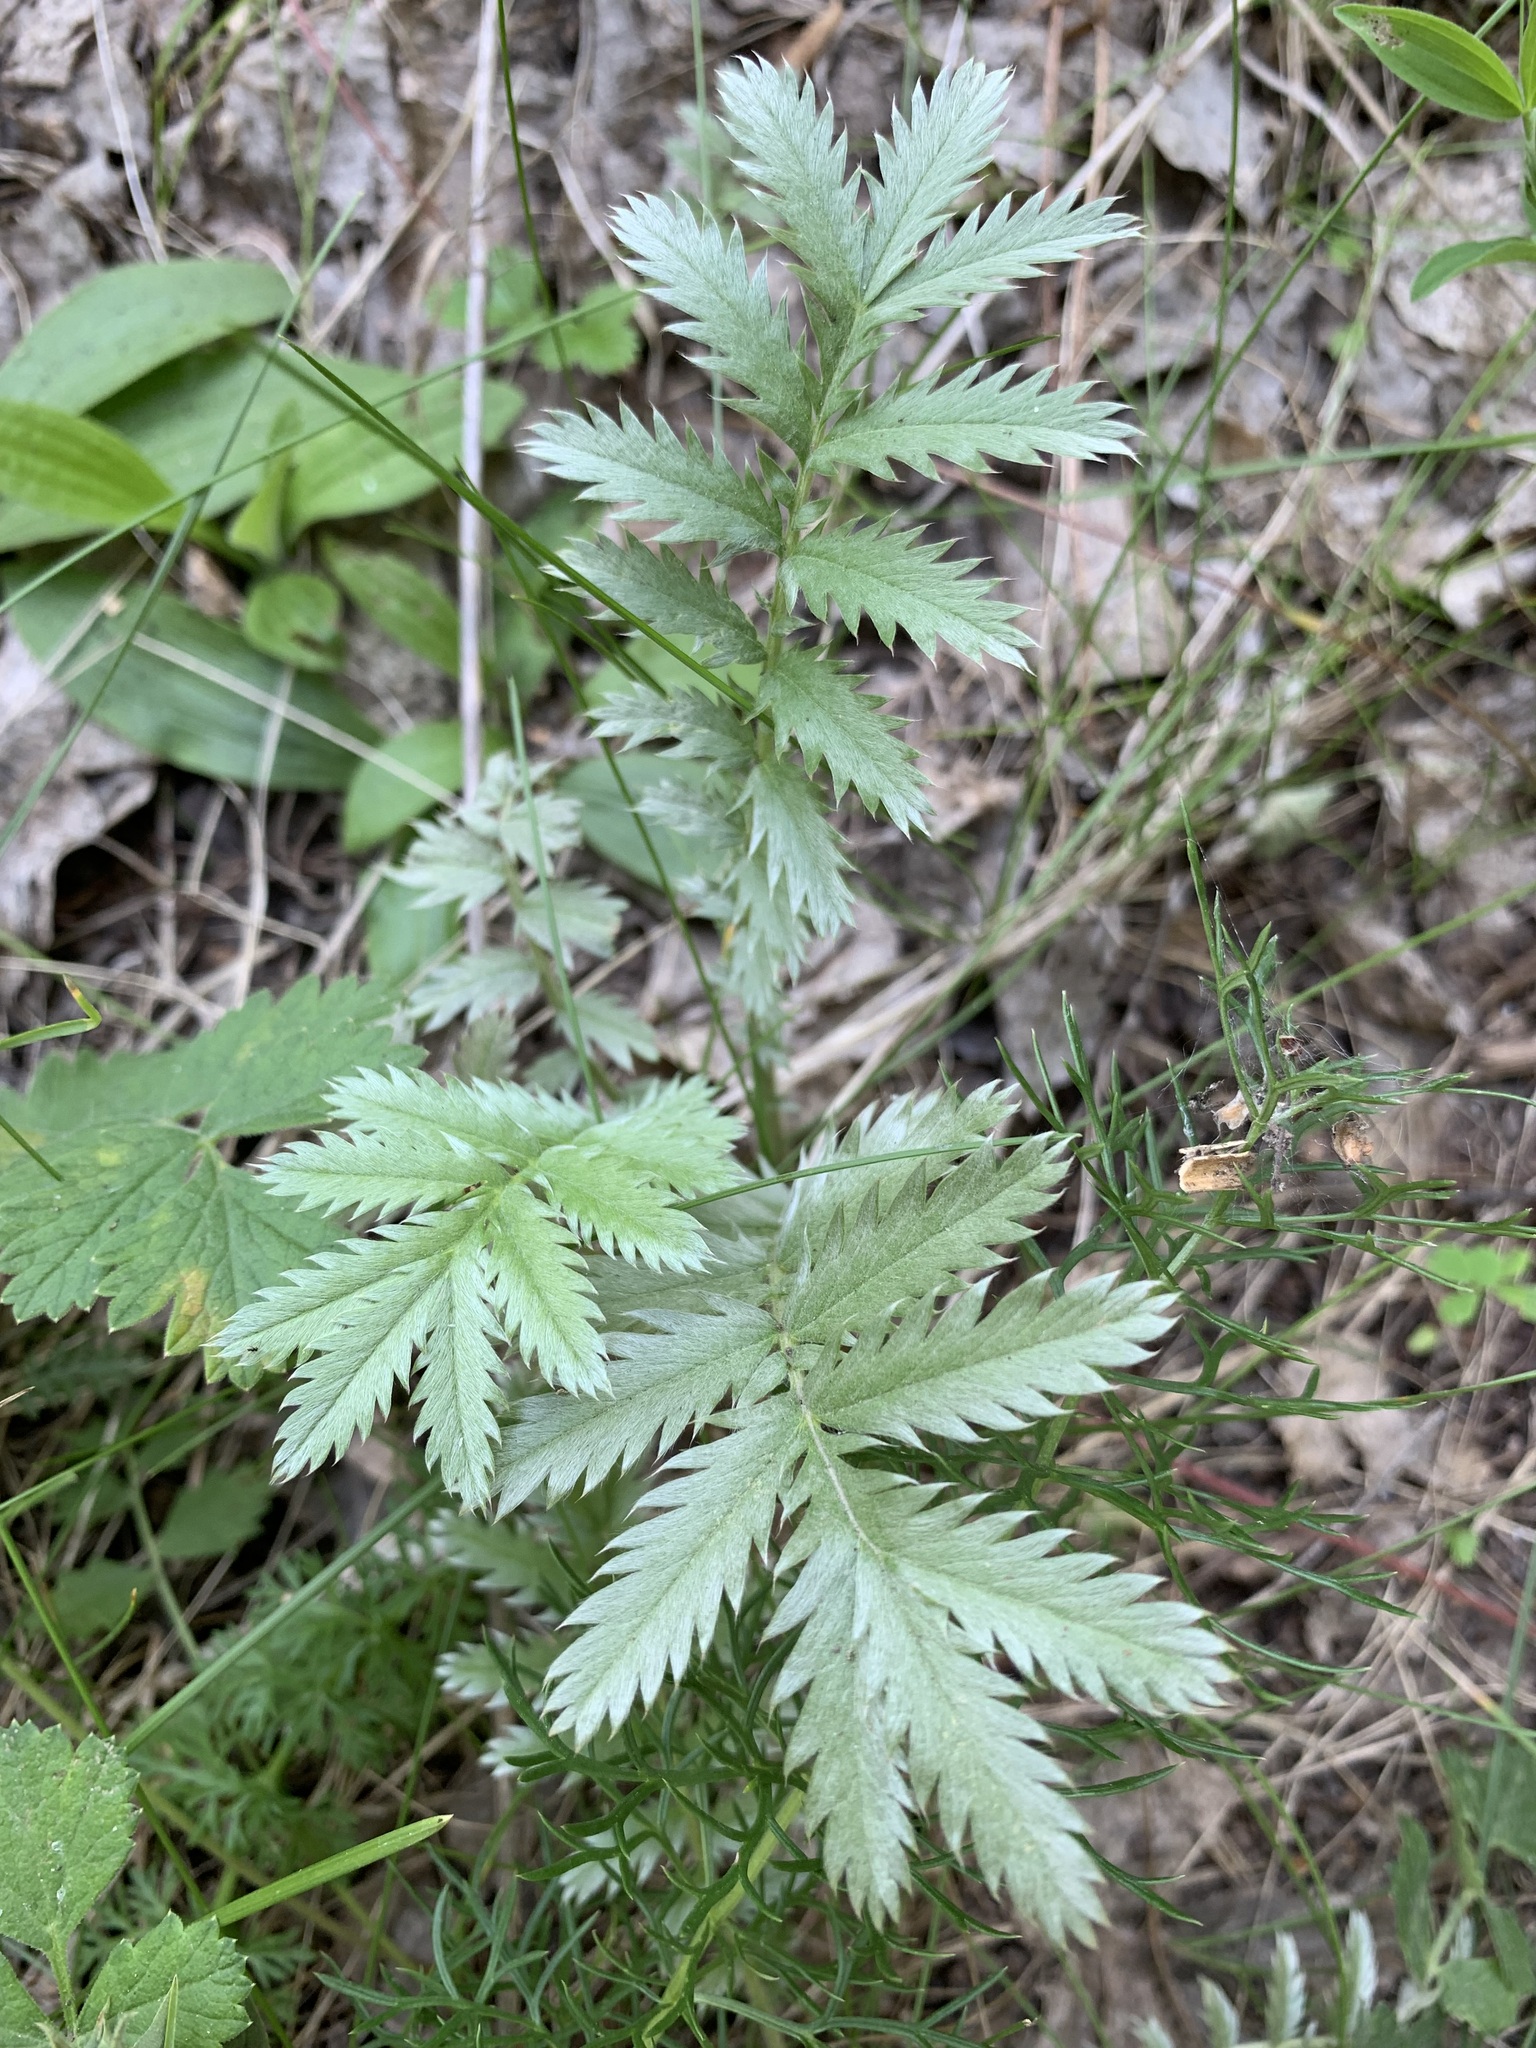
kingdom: Plantae
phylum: Tracheophyta
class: Magnoliopsida
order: Rosales
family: Rosaceae
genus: Argentina
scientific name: Argentina anserina
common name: Common silverweed
